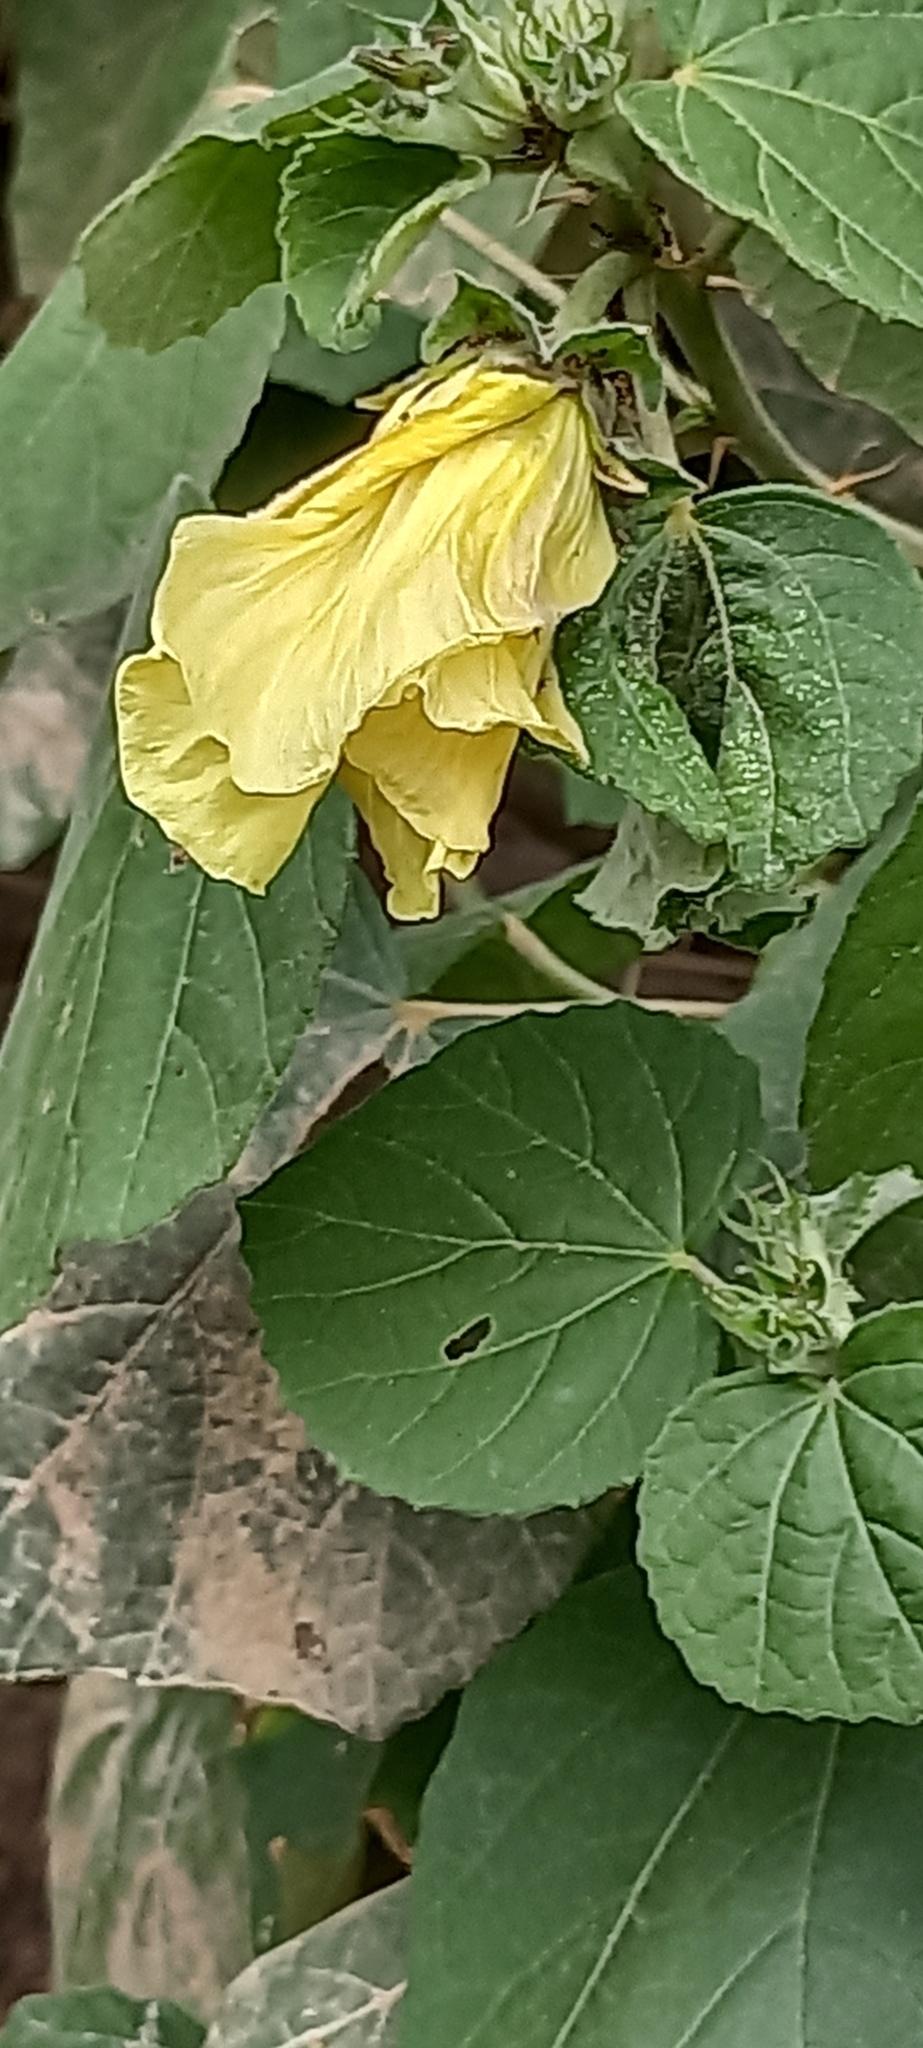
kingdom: Plantae
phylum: Tracheophyta
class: Magnoliopsida
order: Malvales
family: Malvaceae
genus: Hibiscus
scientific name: Hibiscus calyphyllus
